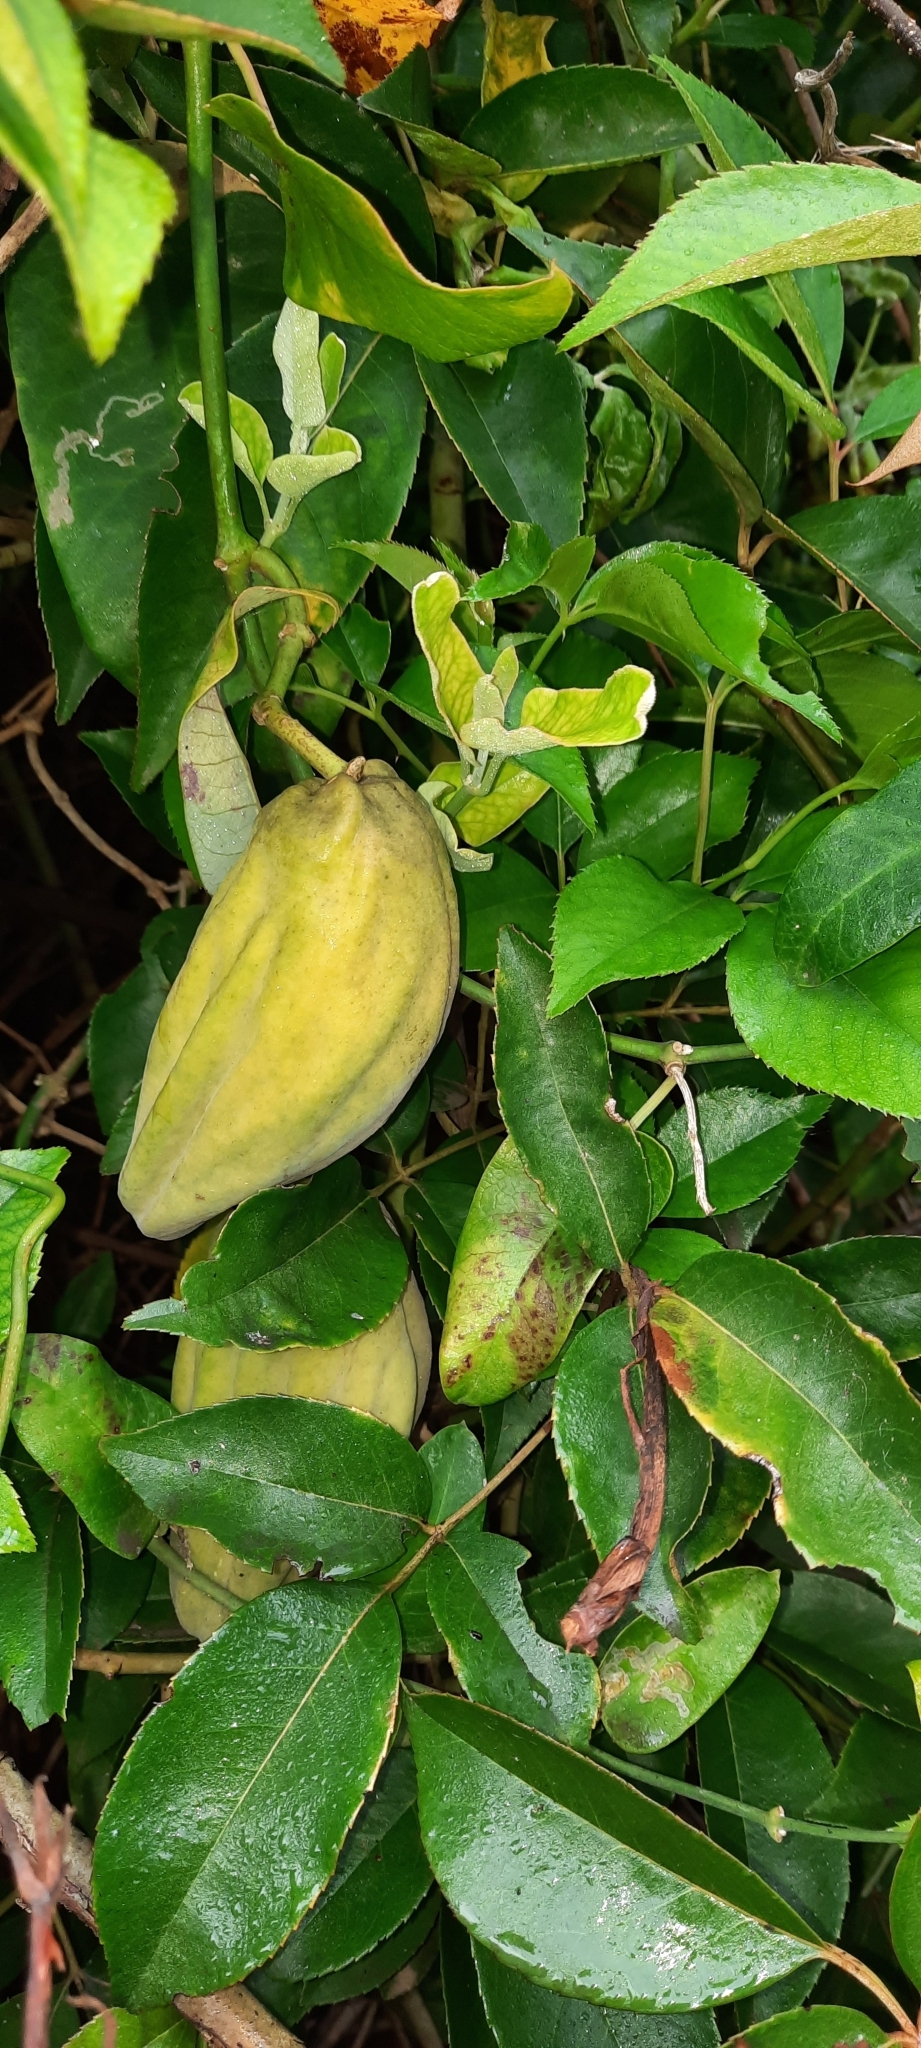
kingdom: Plantae
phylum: Tracheophyta
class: Magnoliopsida
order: Gentianales
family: Apocynaceae
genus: Araujia
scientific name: Araujia sericifera
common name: White bladderflower
